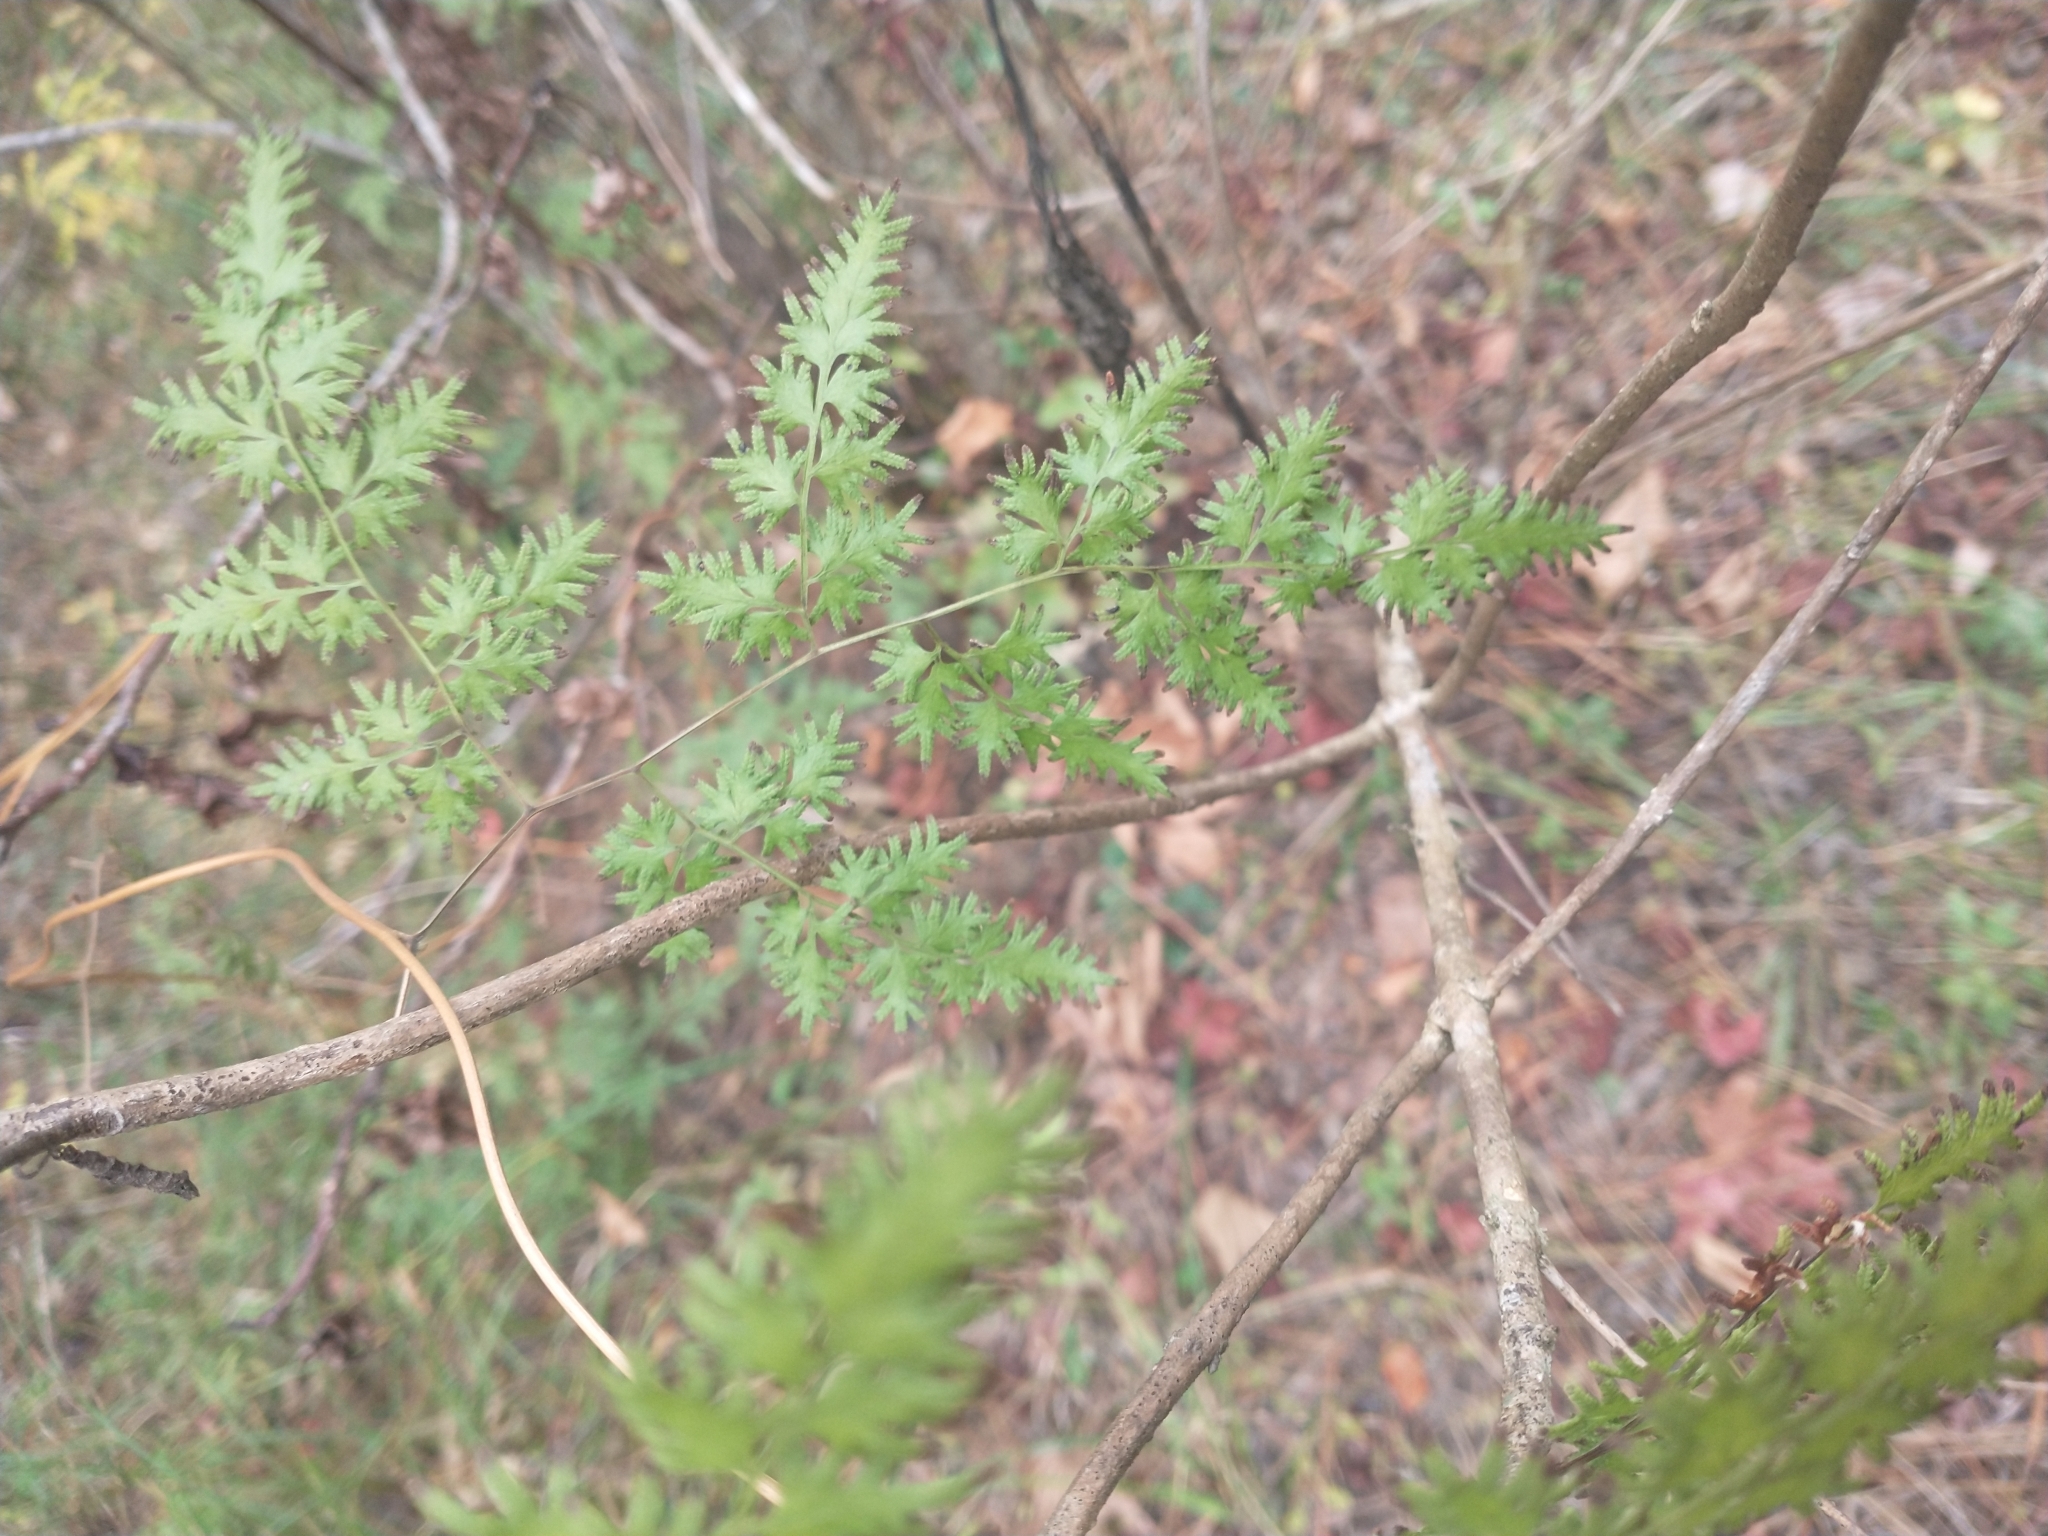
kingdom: Plantae
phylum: Tracheophyta
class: Polypodiopsida
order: Schizaeales
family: Lygodiaceae
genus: Lygodium
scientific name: Lygodium japonicum
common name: Japanese climbing fern
